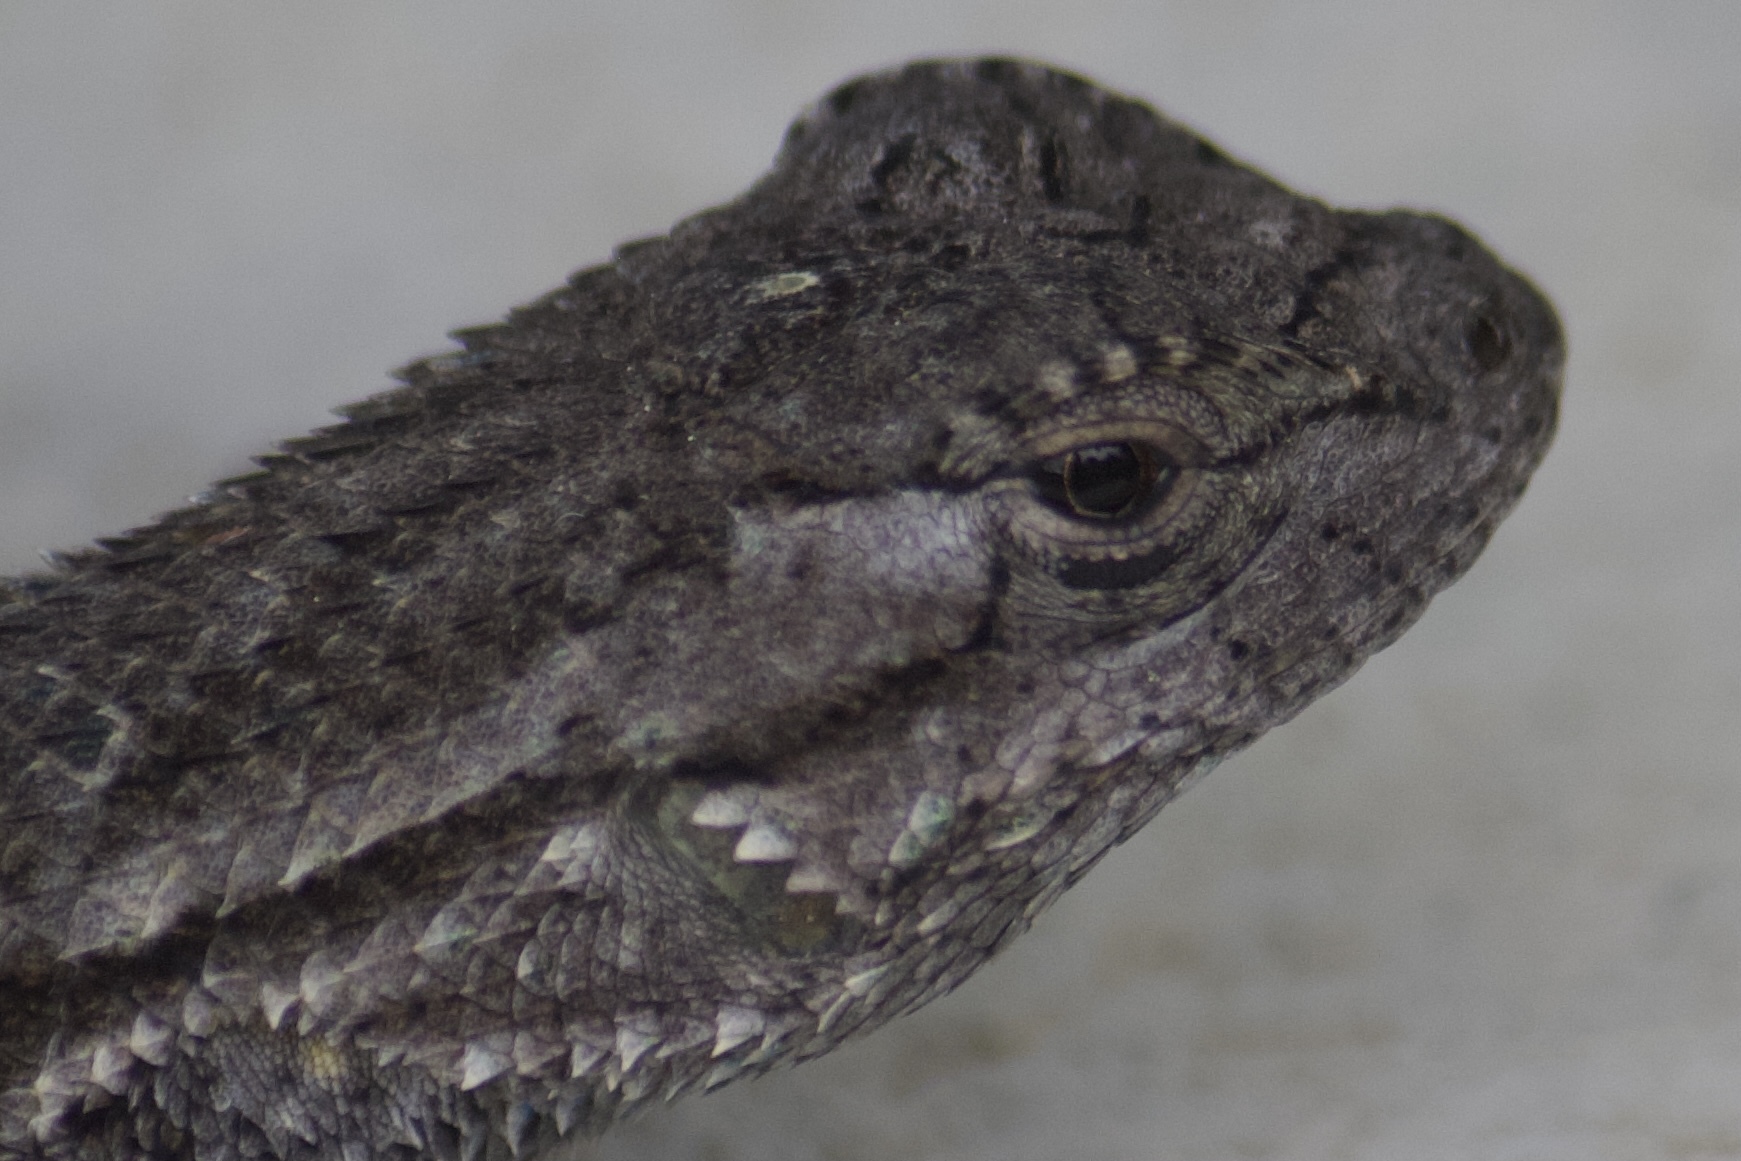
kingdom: Animalia
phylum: Chordata
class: Squamata
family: Phrynosomatidae
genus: Sceloporus
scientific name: Sceloporus occidentalis
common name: Western fence lizard
